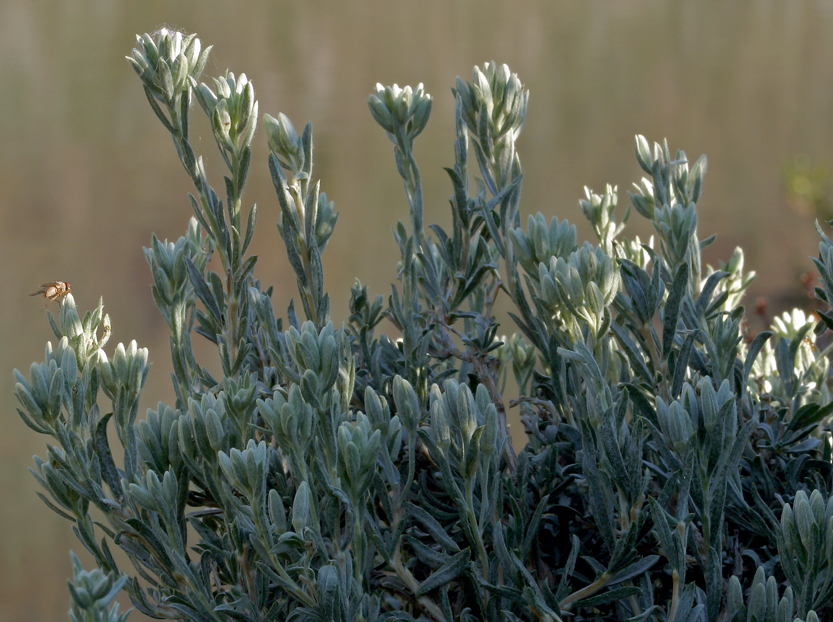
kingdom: Plantae
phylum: Tracheophyta
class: Magnoliopsida
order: Asterales
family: Asteraceae
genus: Tetradymia
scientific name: Tetradymia canescens
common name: Spineless horsebrush
